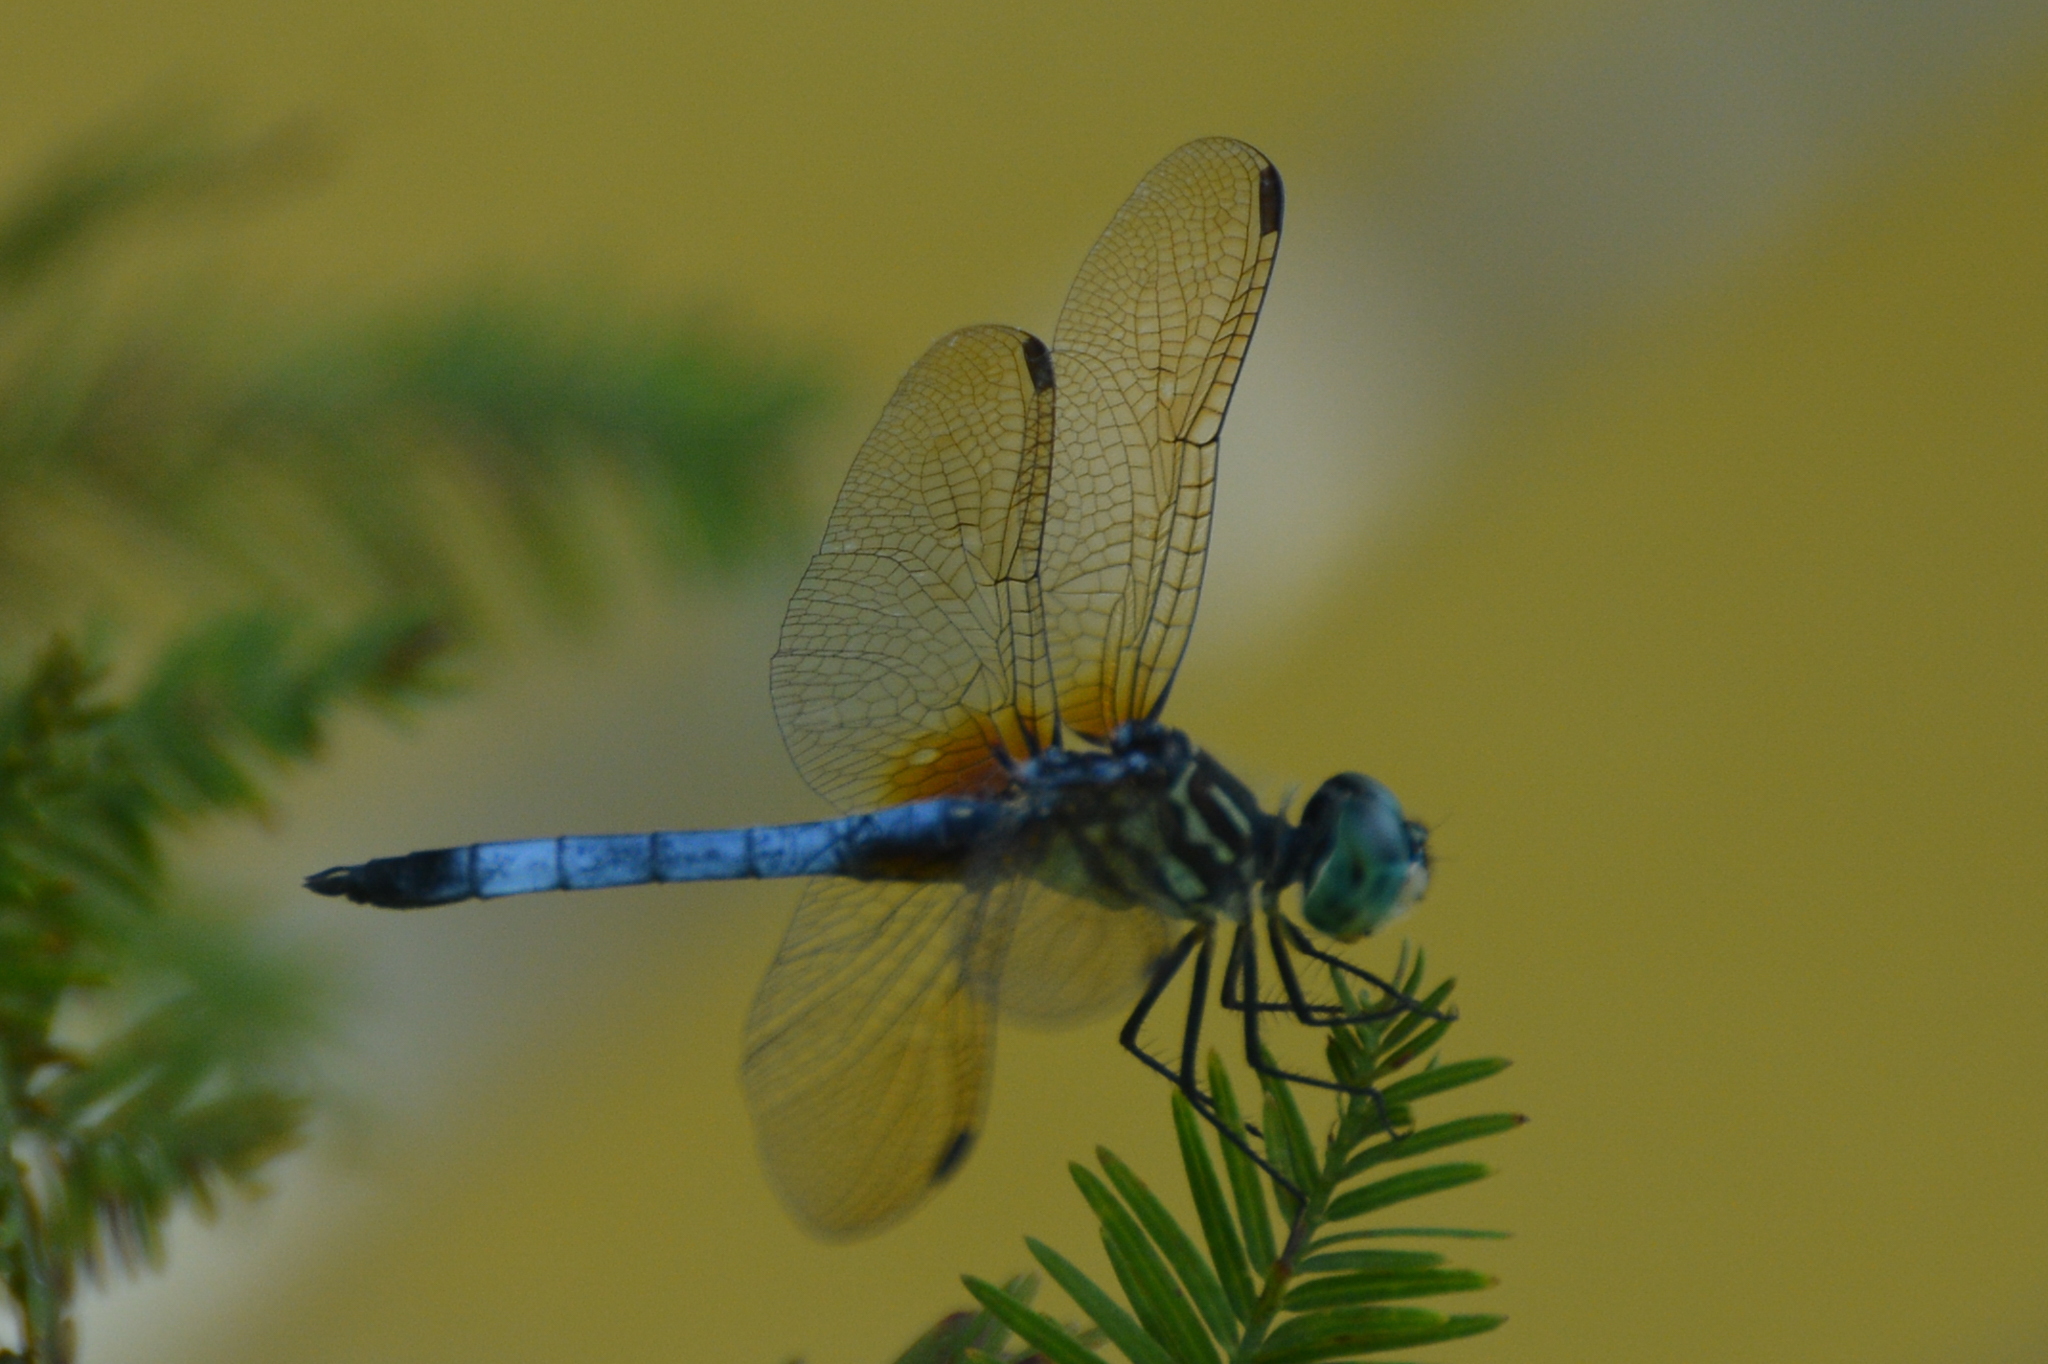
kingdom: Animalia
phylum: Arthropoda
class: Insecta
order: Odonata
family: Libellulidae
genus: Pachydiplax
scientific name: Pachydiplax longipennis
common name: Blue dasher
